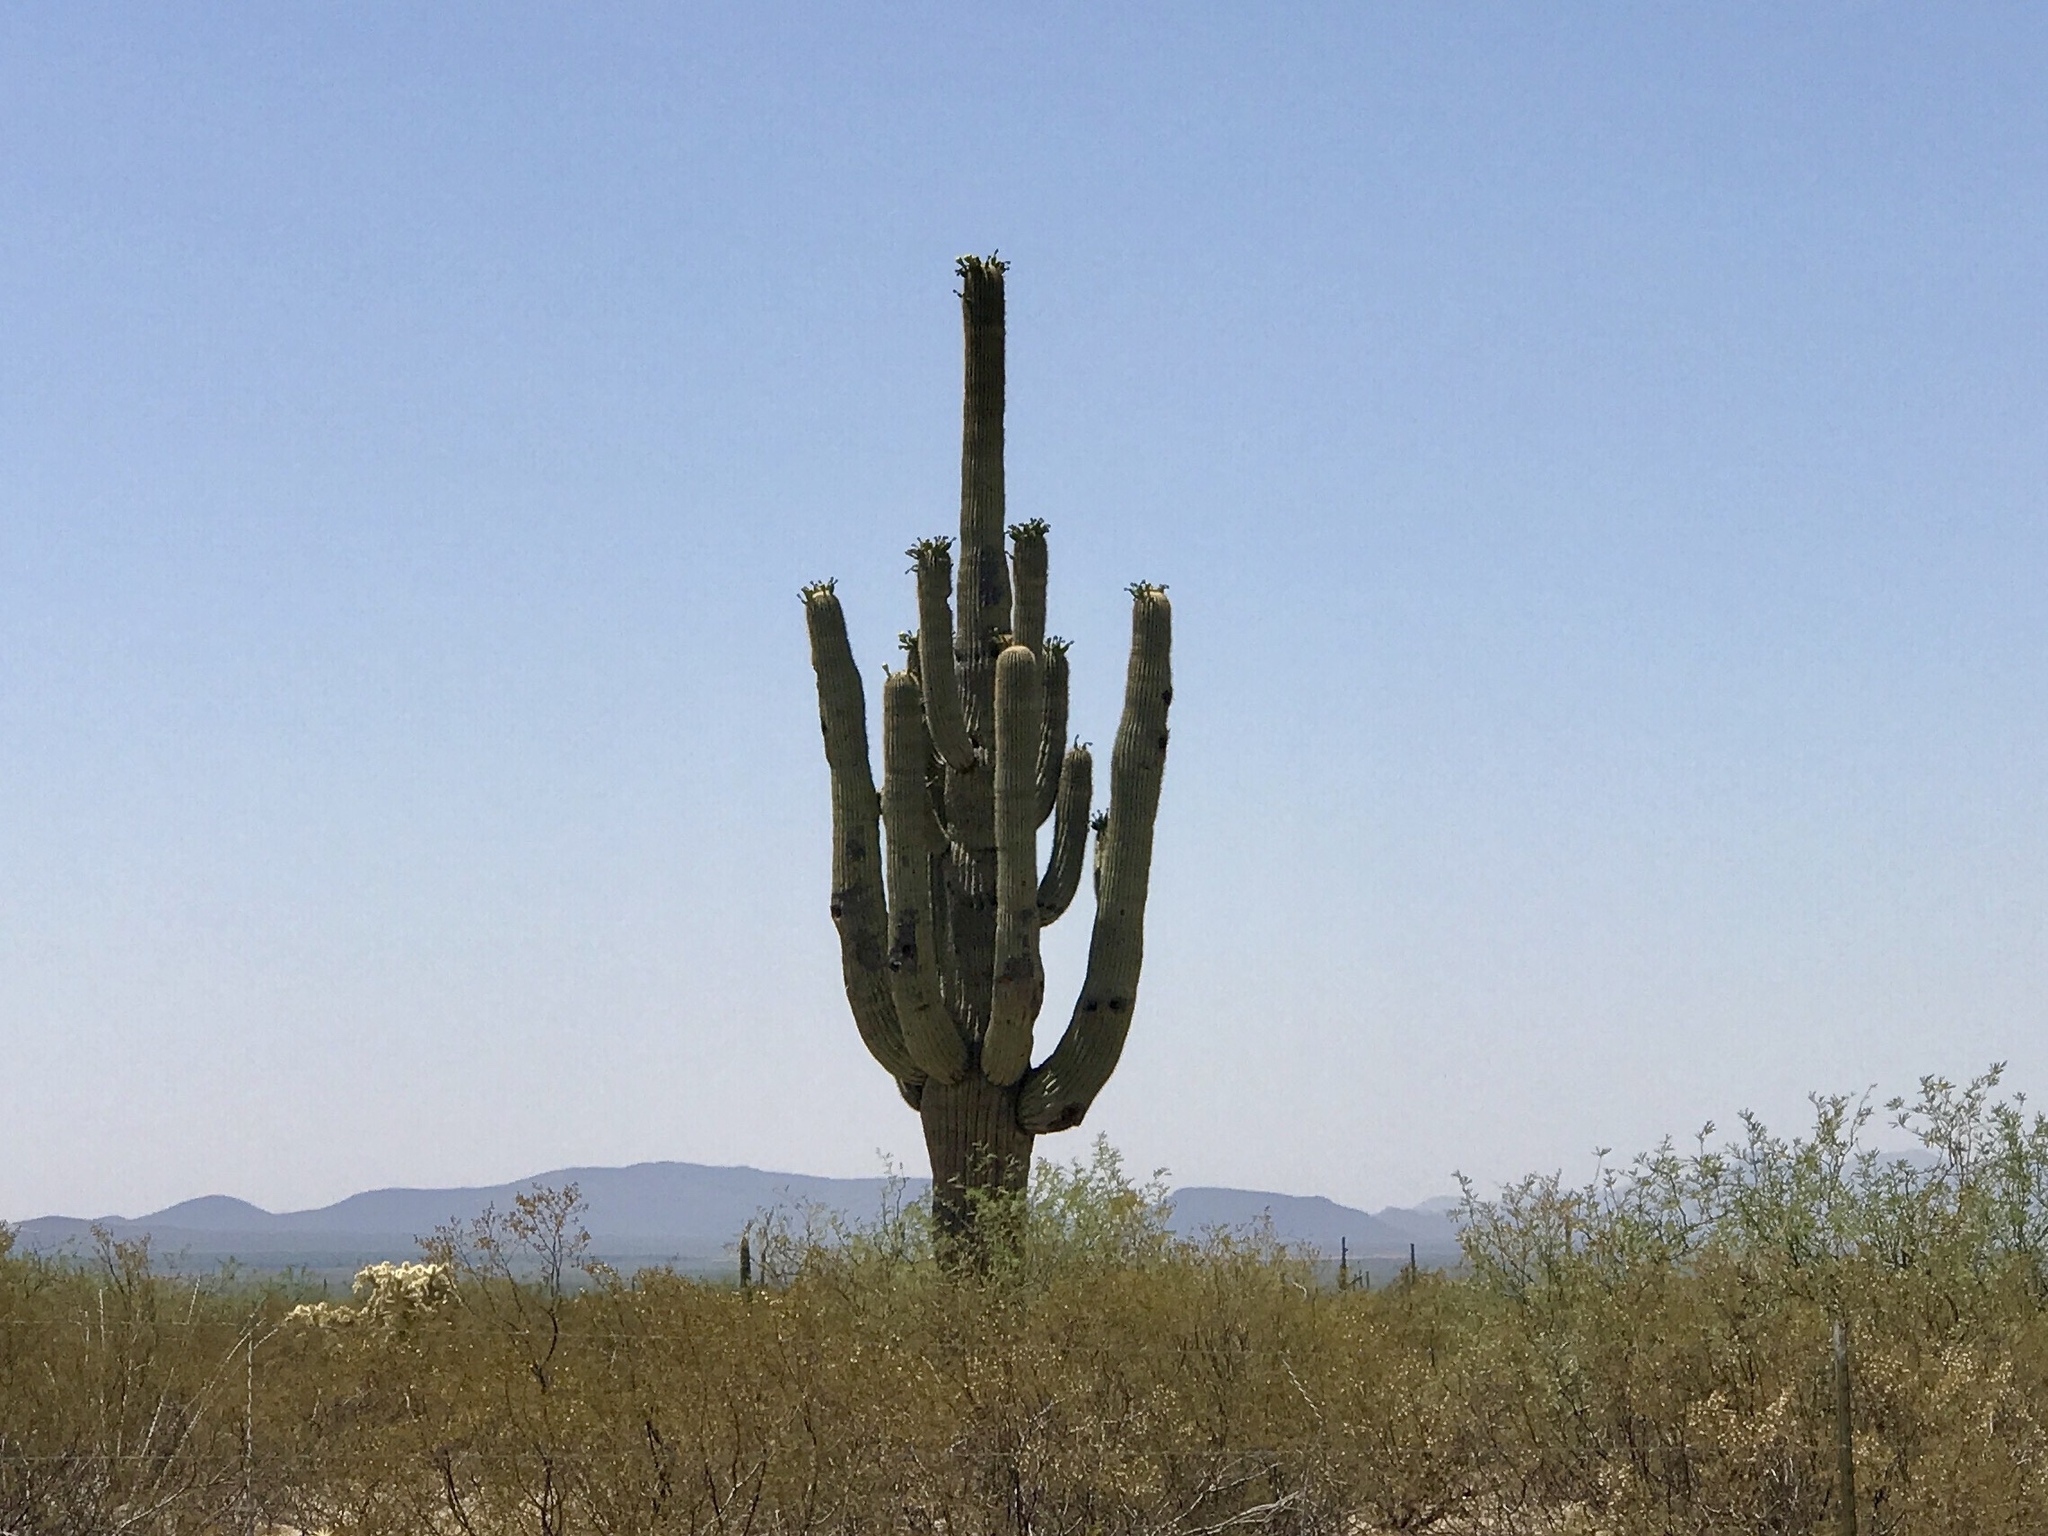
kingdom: Plantae
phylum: Tracheophyta
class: Magnoliopsida
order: Caryophyllales
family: Cactaceae
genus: Carnegiea
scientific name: Carnegiea gigantea
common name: Saguaro
